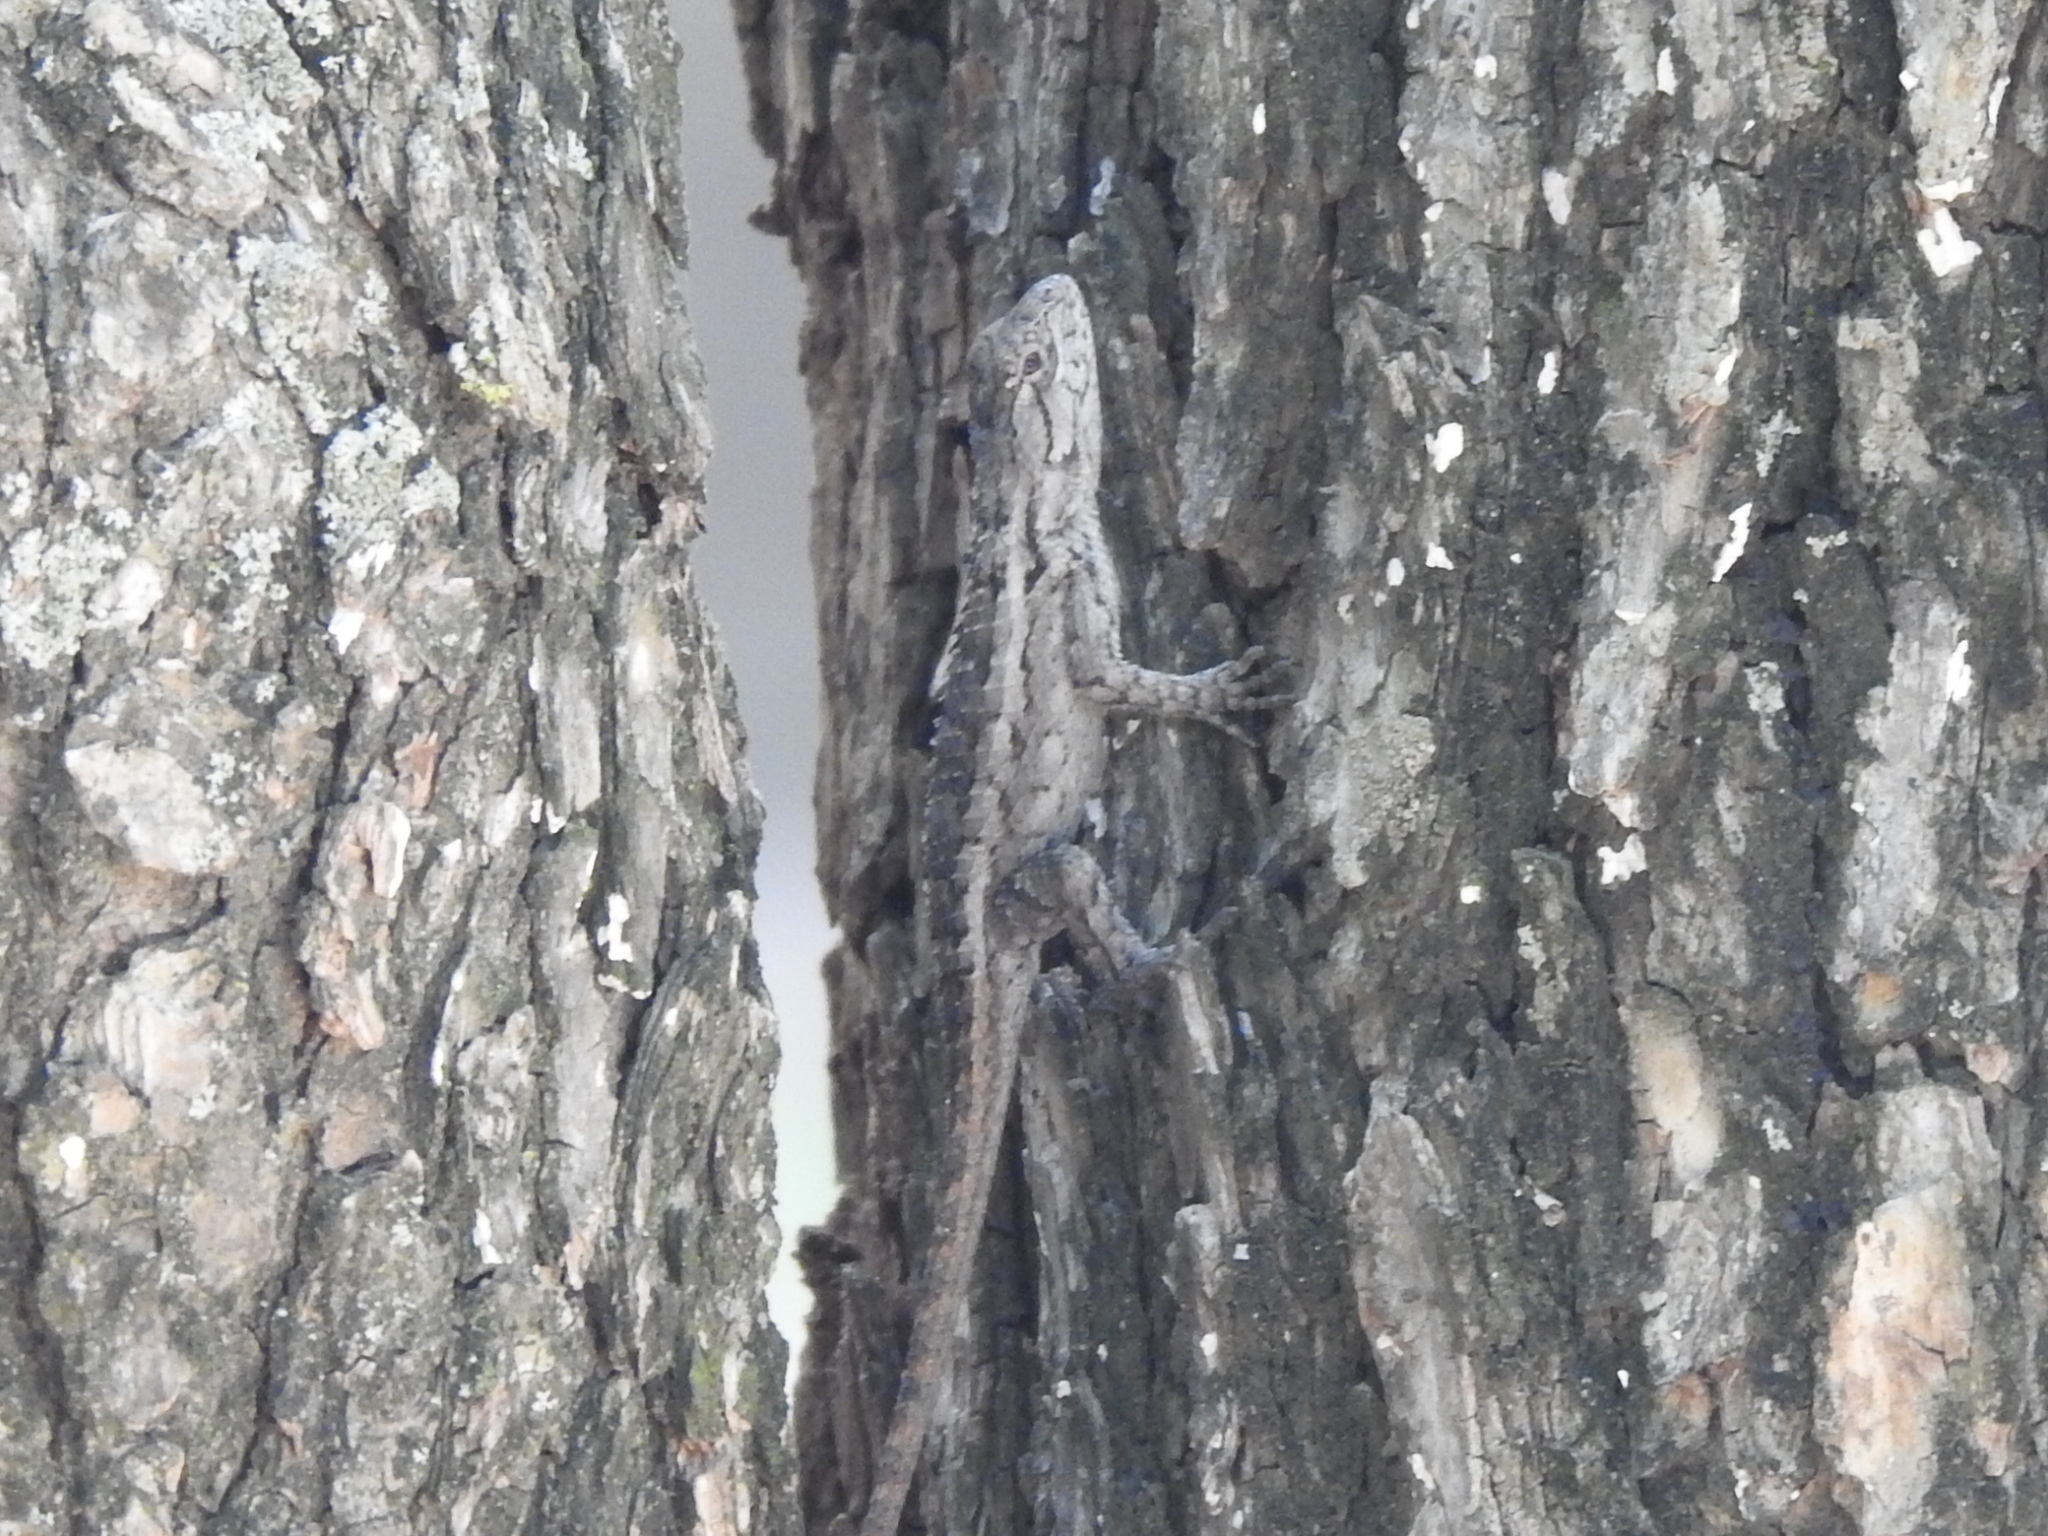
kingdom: Animalia
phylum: Chordata
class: Squamata
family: Phrynosomatidae
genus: Sceloporus
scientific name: Sceloporus olivaceus
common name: Texas spiny lizard
